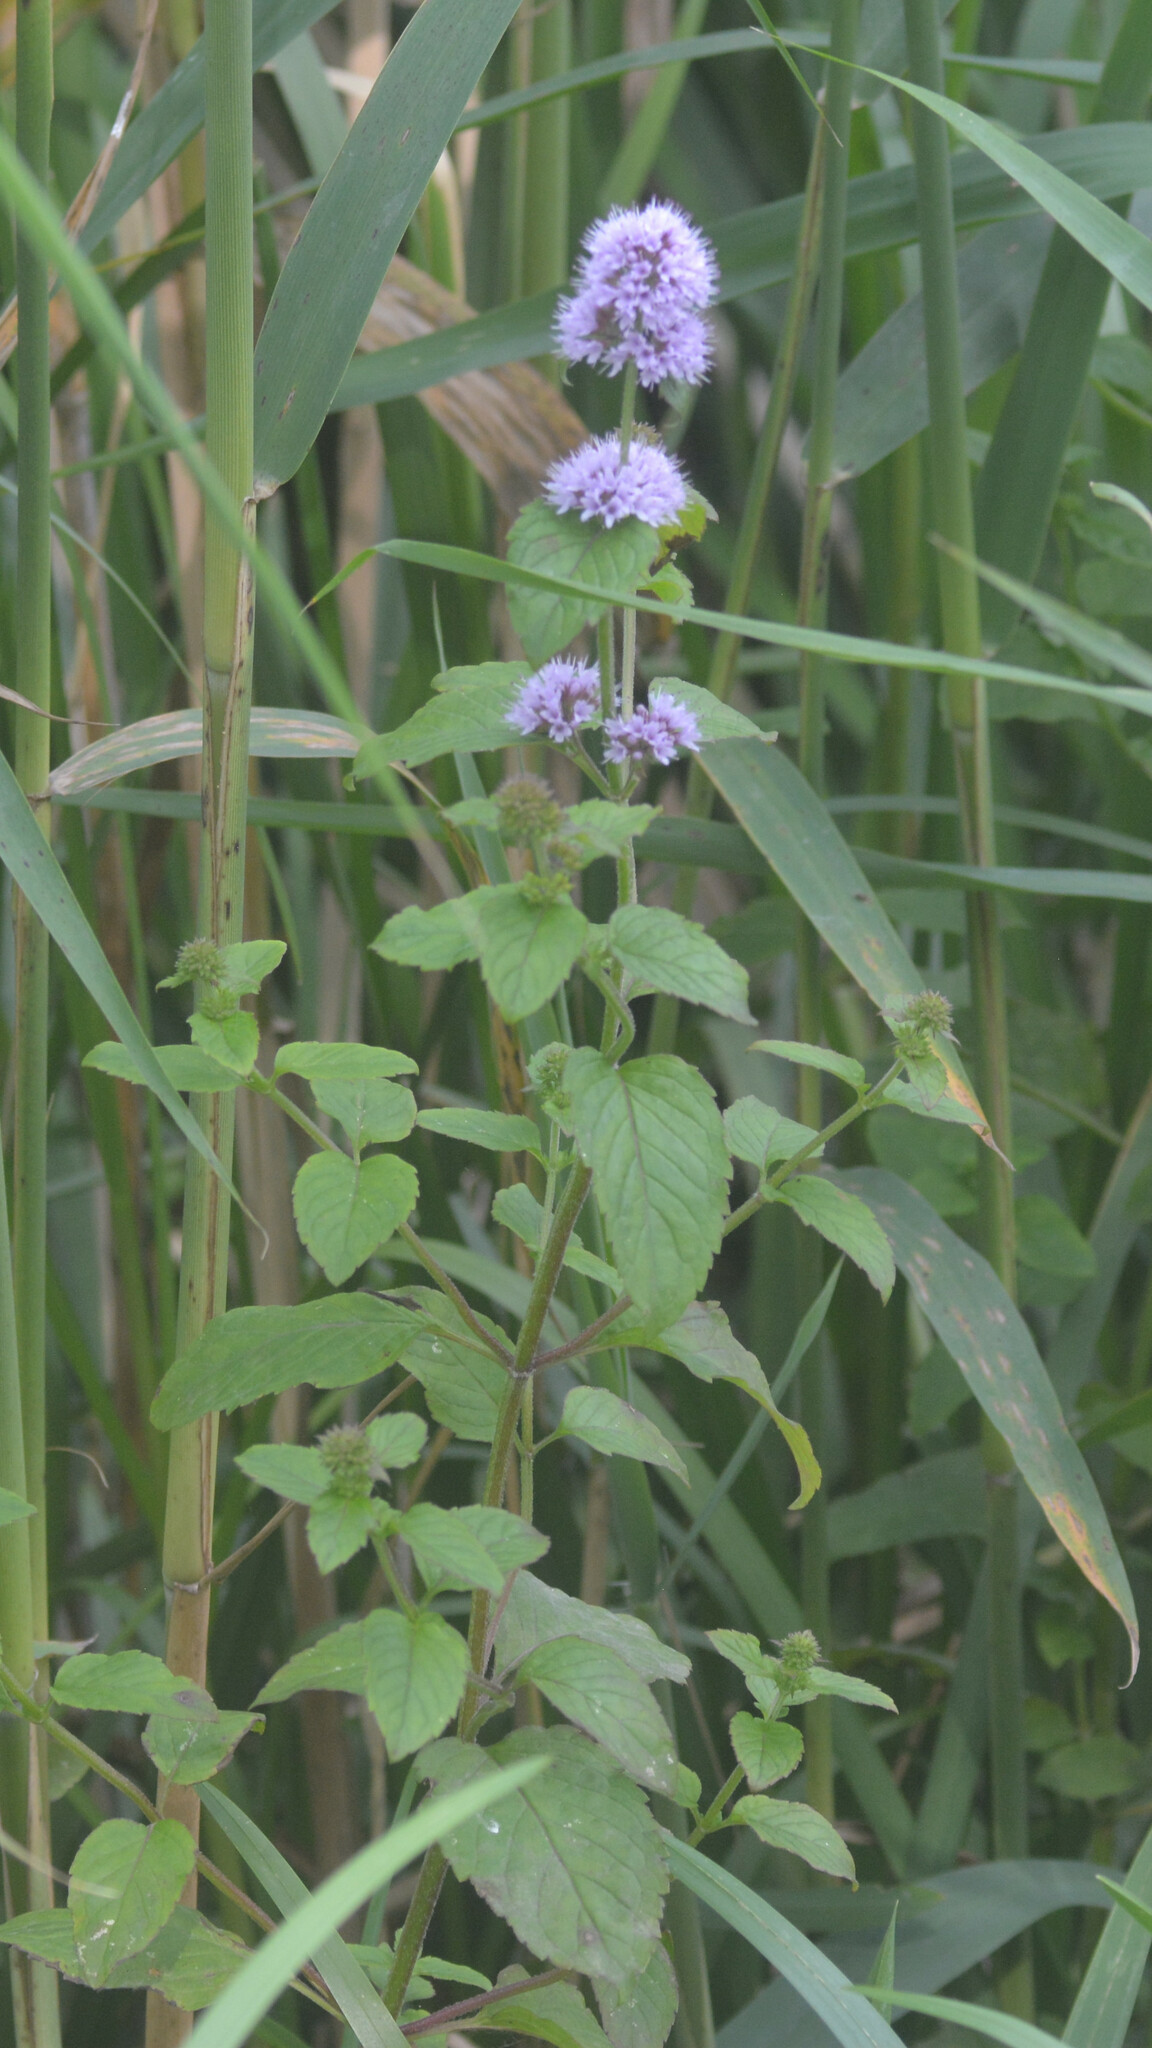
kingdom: Plantae
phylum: Tracheophyta
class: Magnoliopsida
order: Lamiales
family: Lamiaceae
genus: Mentha
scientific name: Mentha aquatica
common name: Water mint
